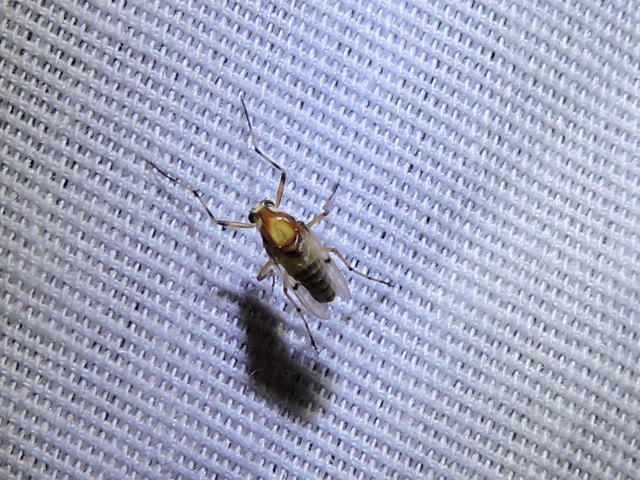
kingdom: Animalia
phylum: Arthropoda
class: Insecta
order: Diptera
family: Chironomidae
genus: Coelotanypus
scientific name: Coelotanypus tricolor
